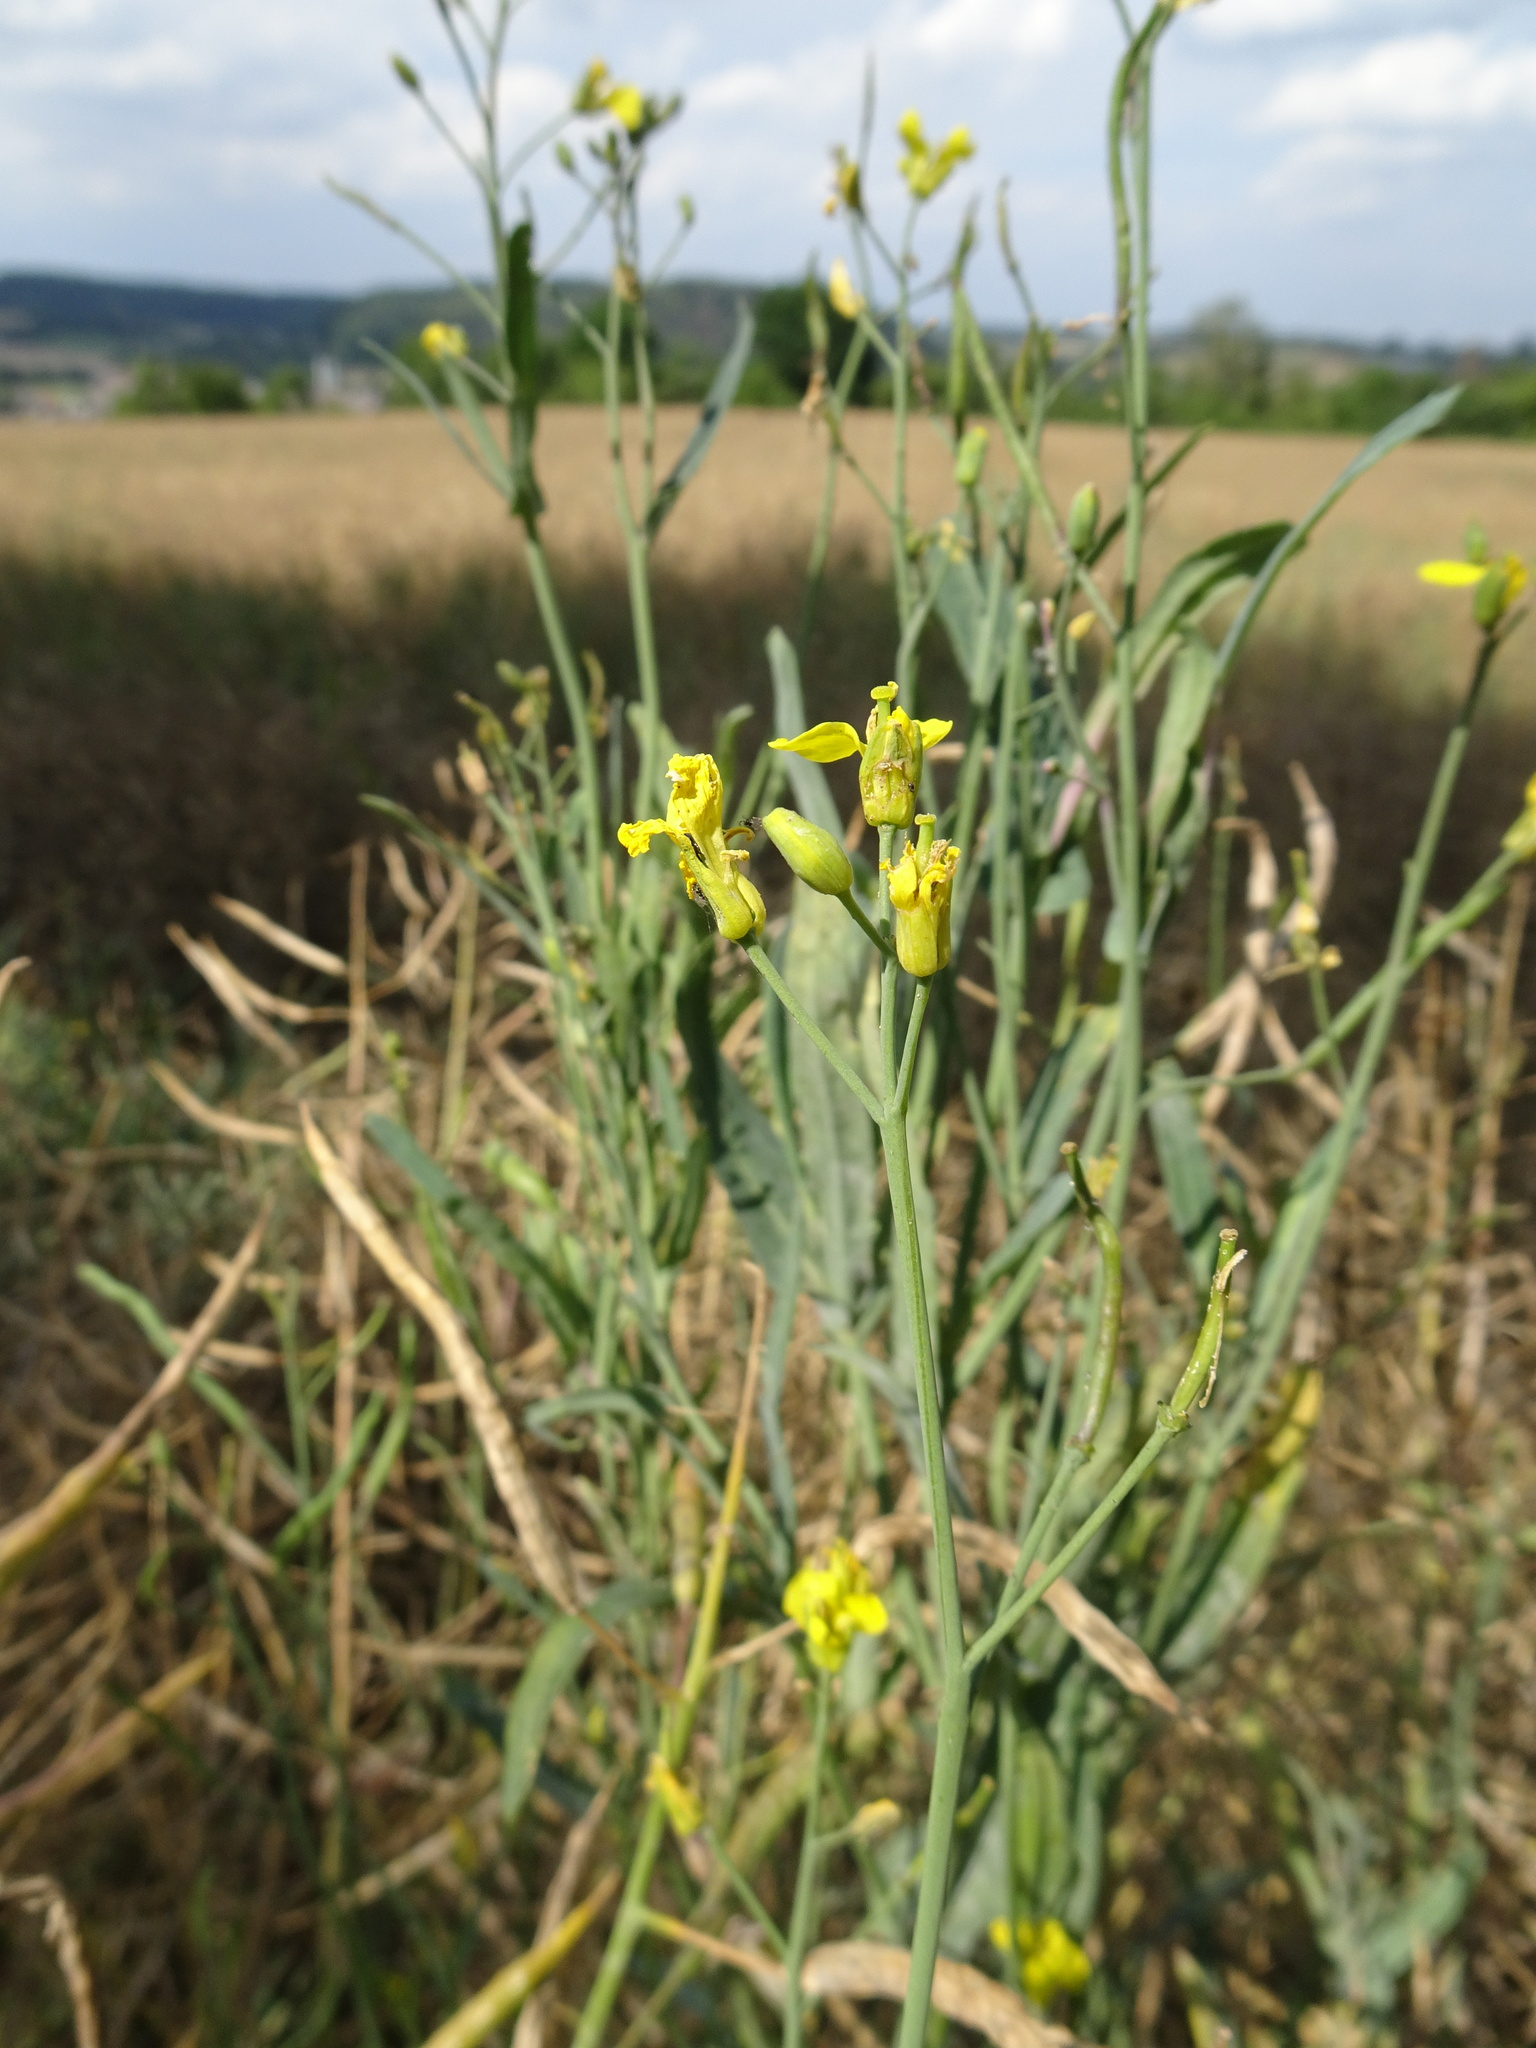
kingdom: Plantae
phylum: Tracheophyta
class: Magnoliopsida
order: Brassicales
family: Brassicaceae
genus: Brassica
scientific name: Brassica napus
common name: Rape
